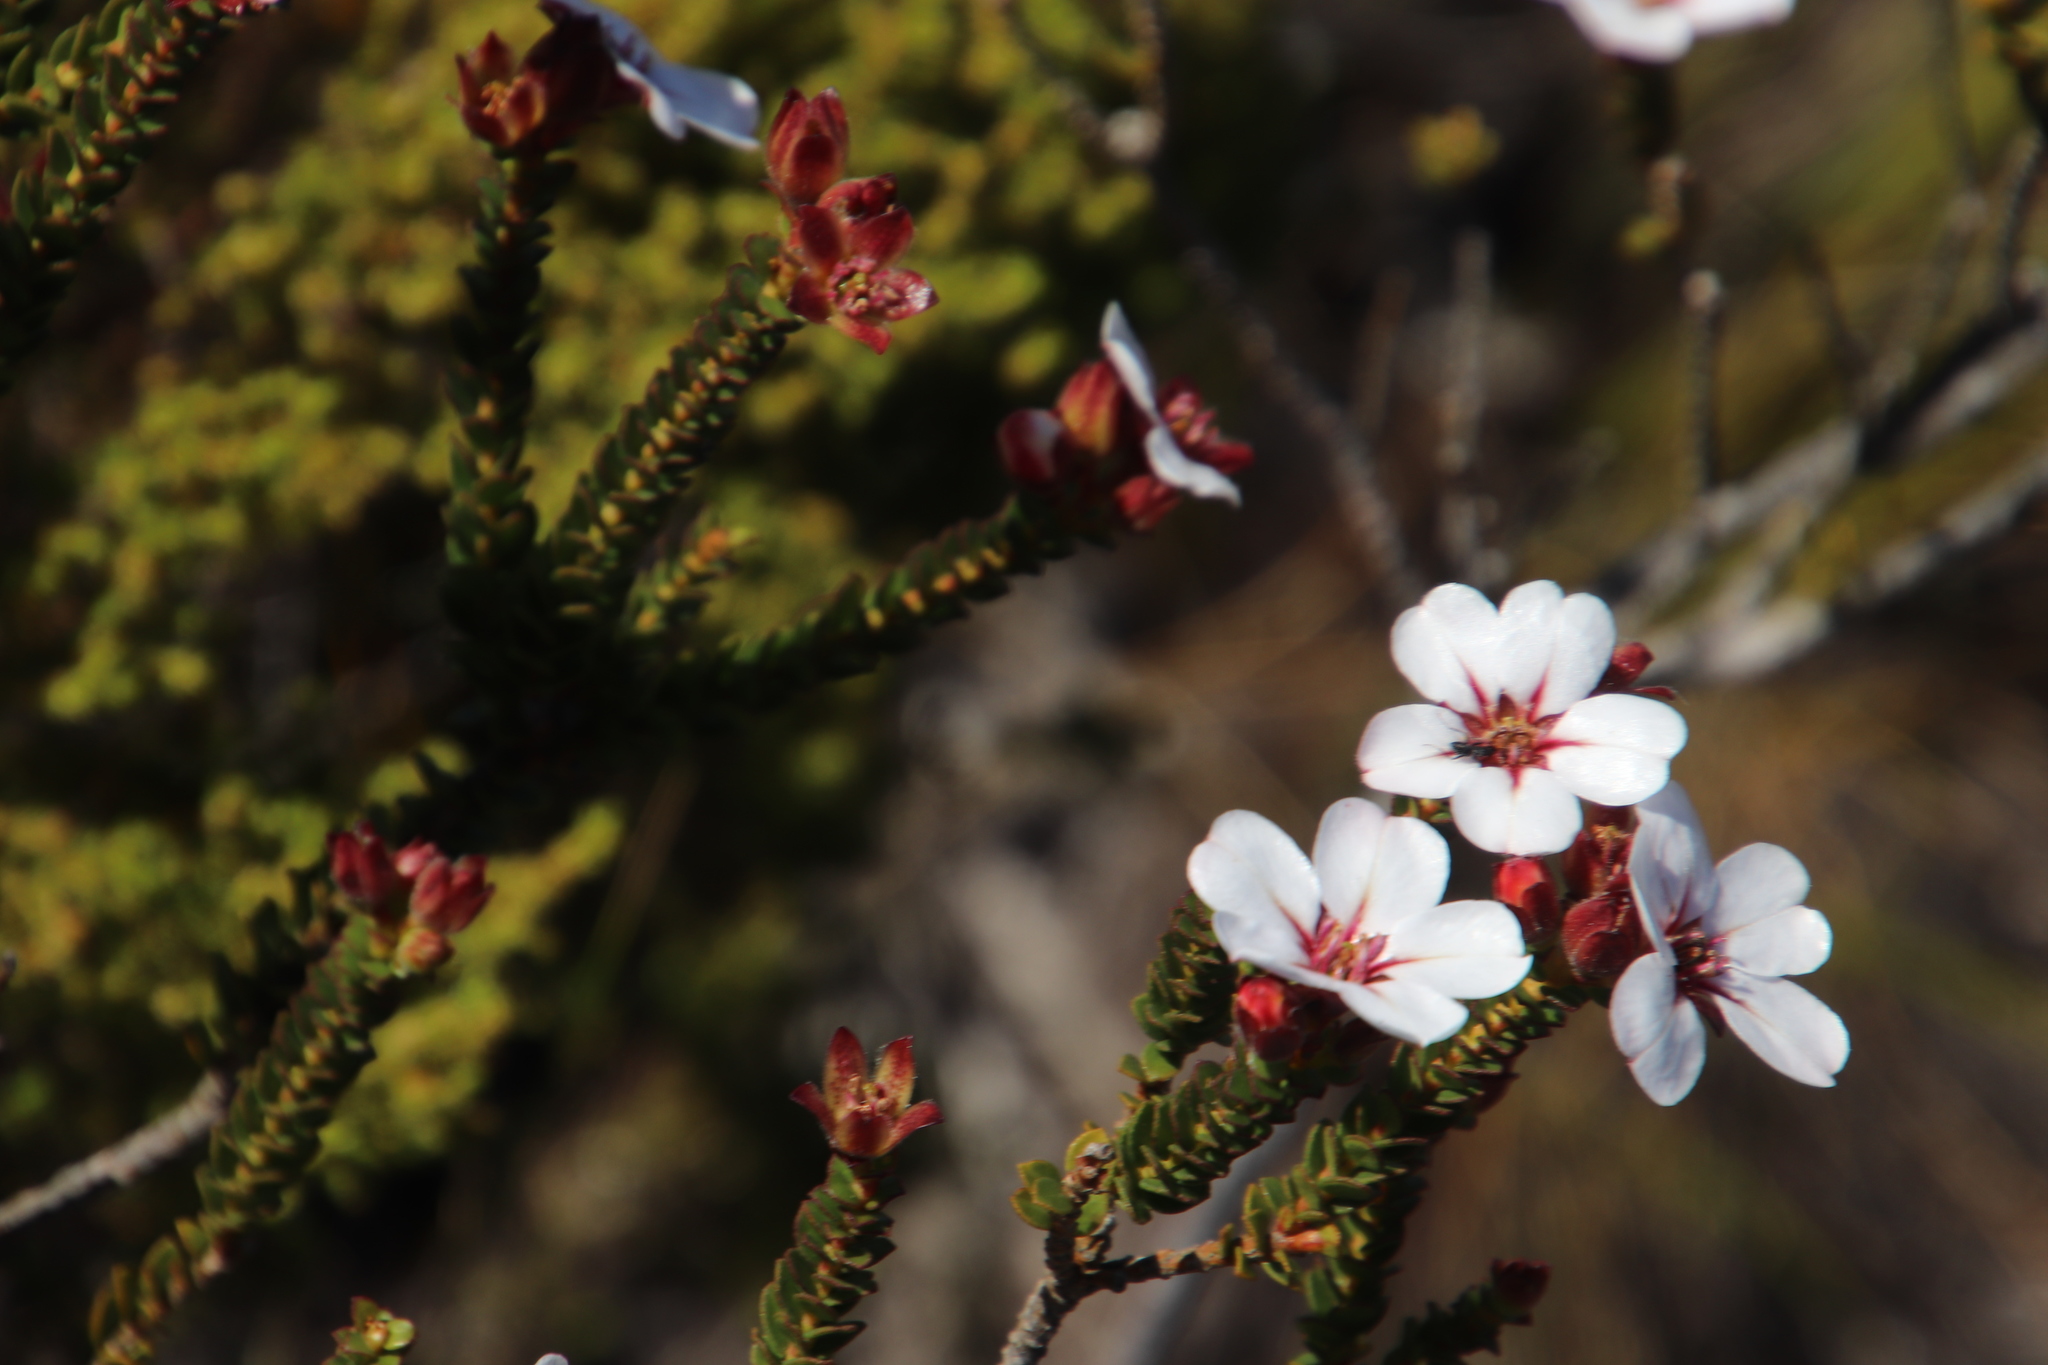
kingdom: Plantae
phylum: Tracheophyta
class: Magnoliopsida
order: Sapindales
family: Rutaceae
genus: Adenandra
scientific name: Adenandra villosa
